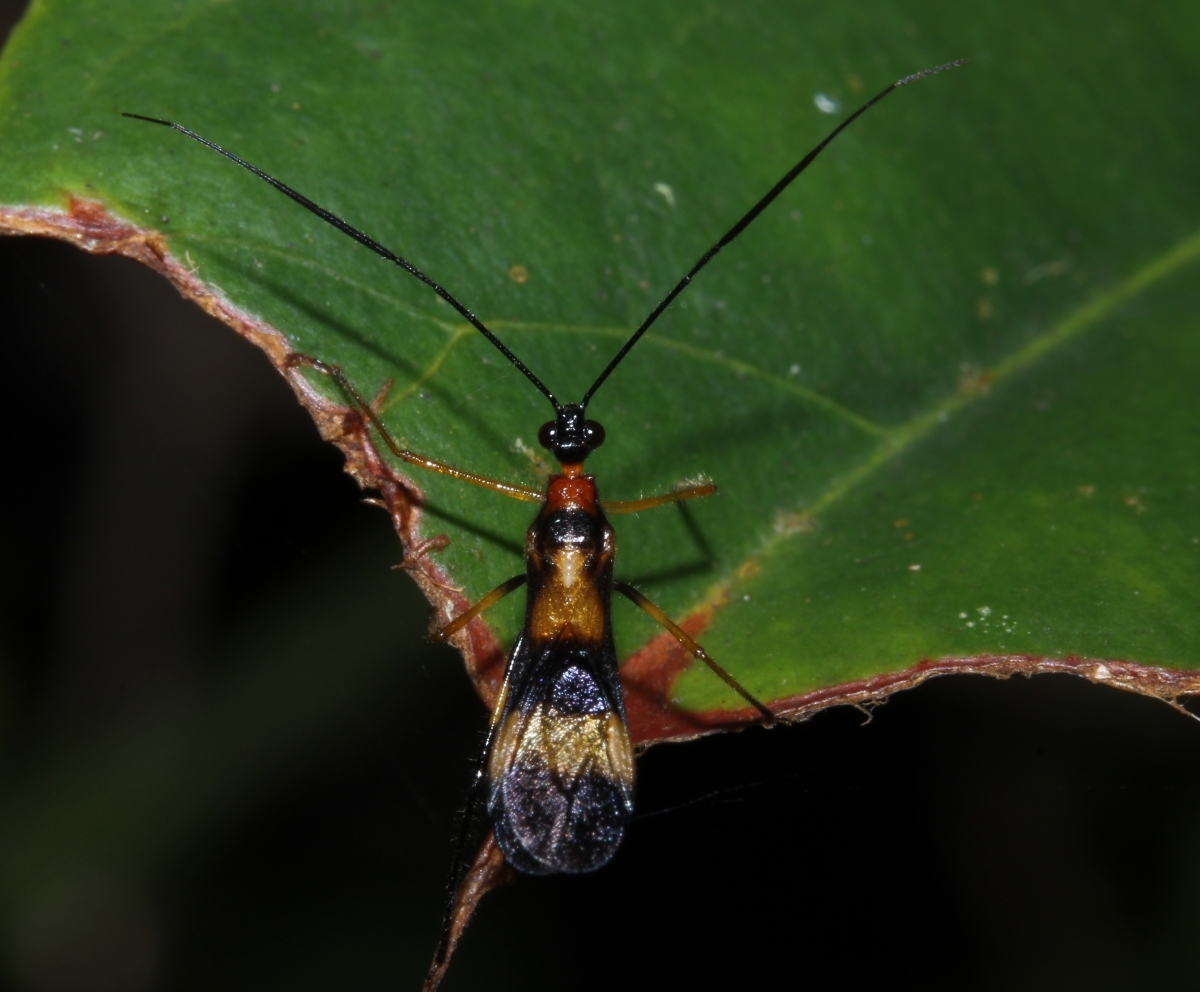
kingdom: Animalia
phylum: Arthropoda
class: Insecta
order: Hemiptera
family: Reduviidae
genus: Graptocleptes
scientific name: Graptocleptes
